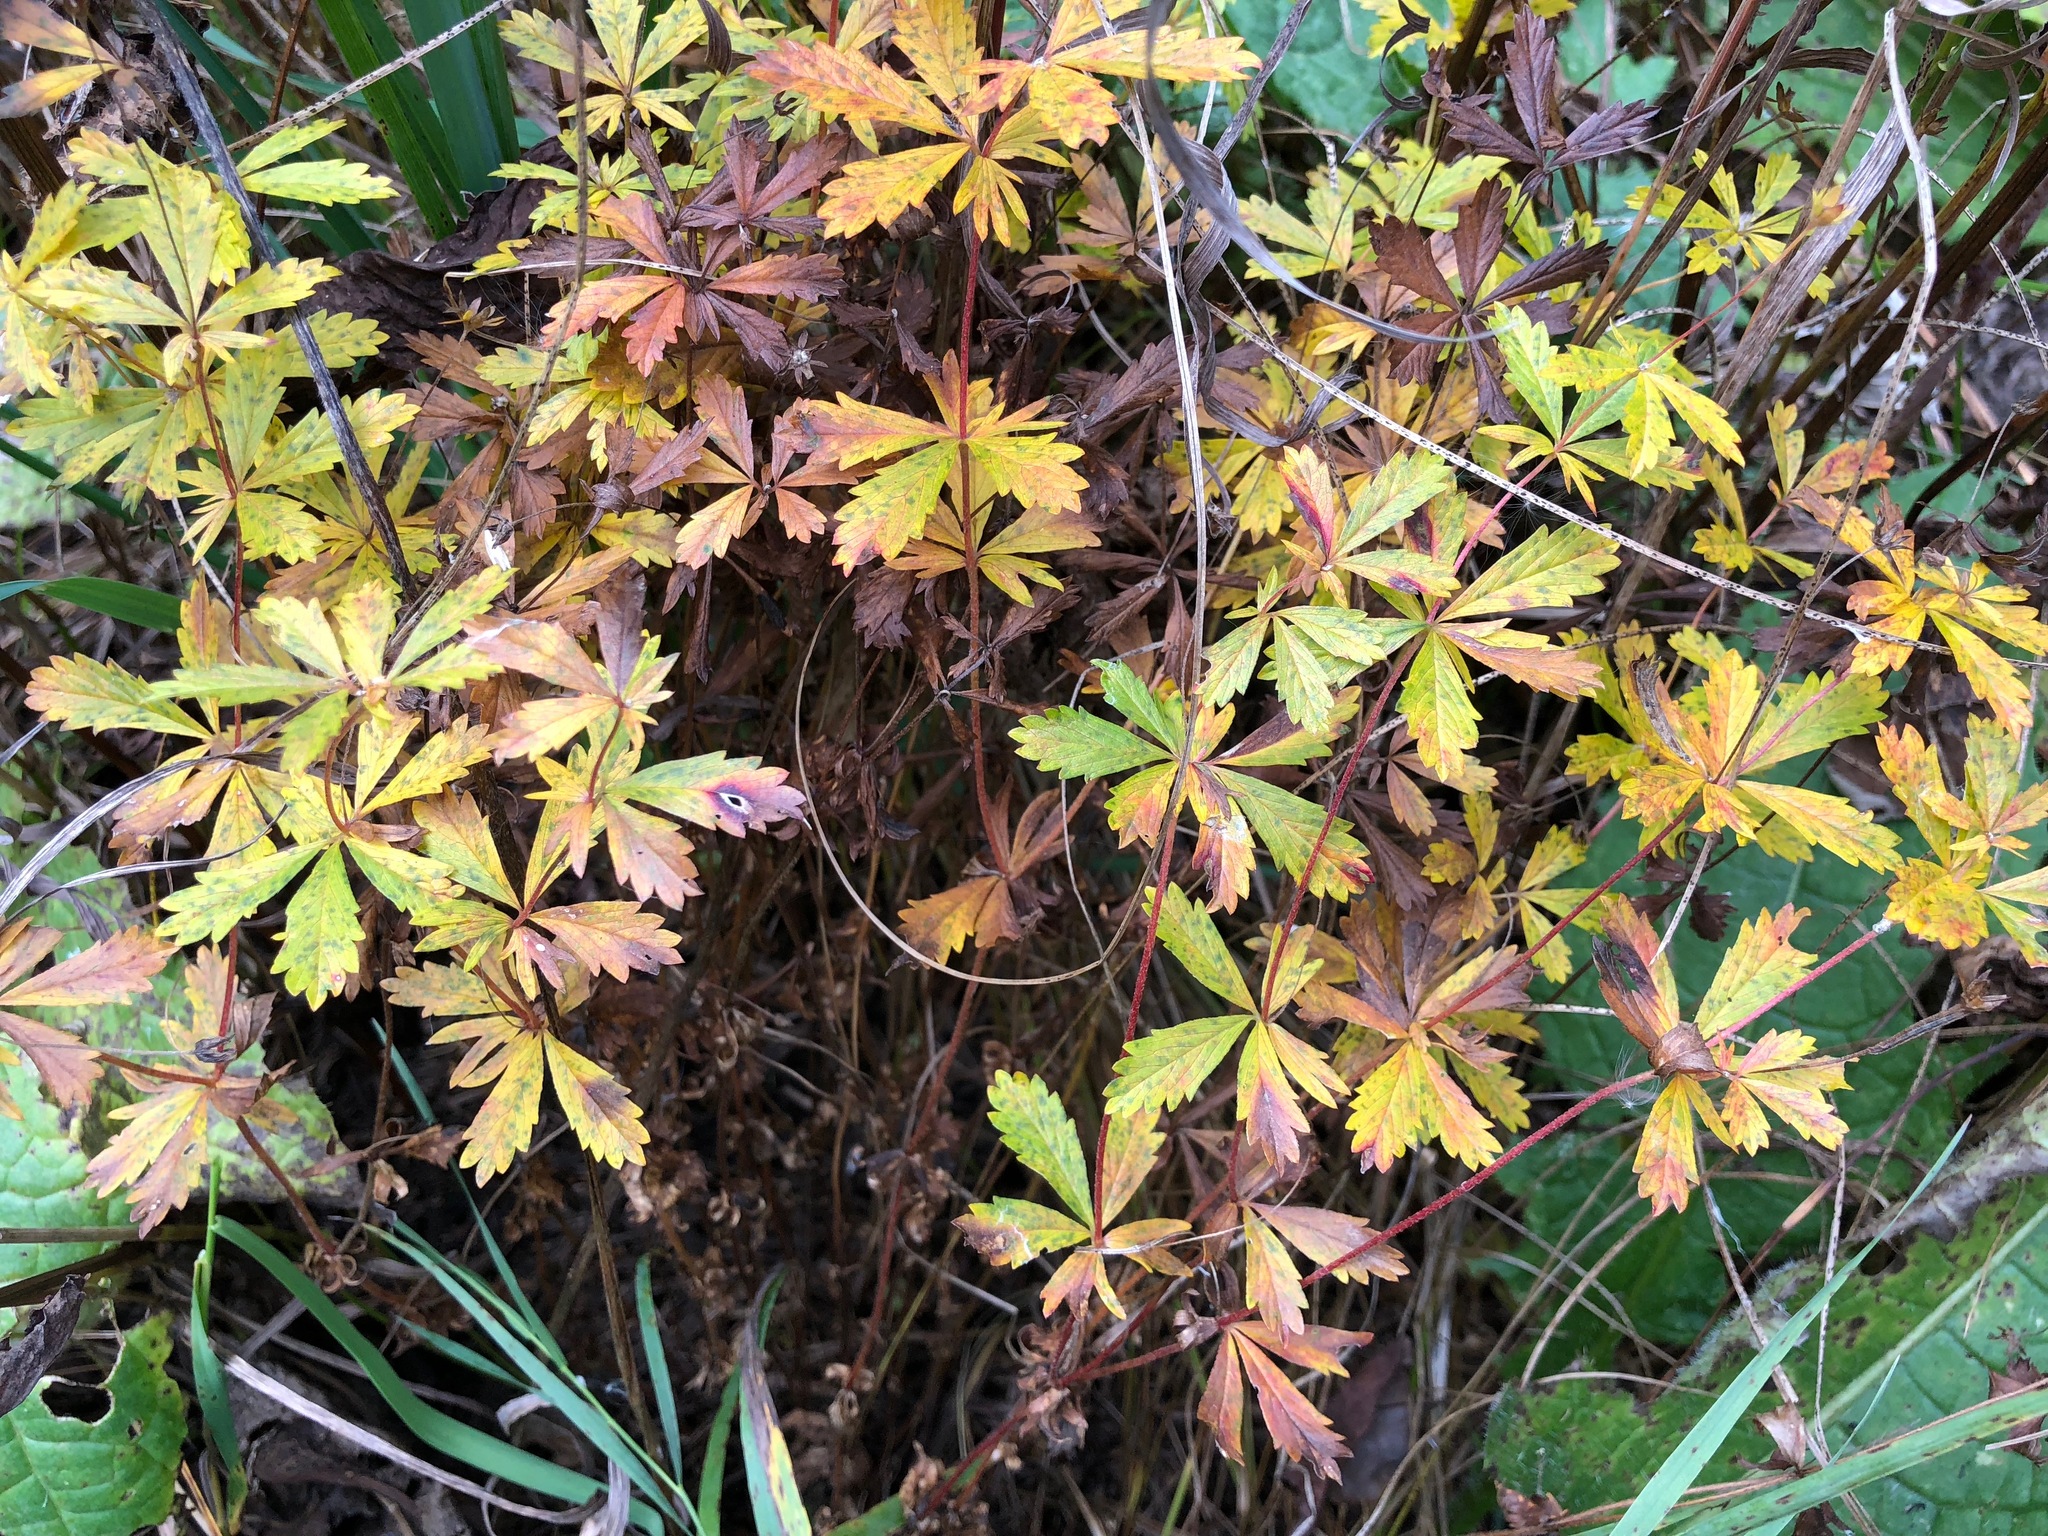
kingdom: Plantae
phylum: Tracheophyta
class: Magnoliopsida
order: Rosales
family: Rosaceae
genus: Potentilla
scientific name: Potentilla erecta
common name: Tormentil
